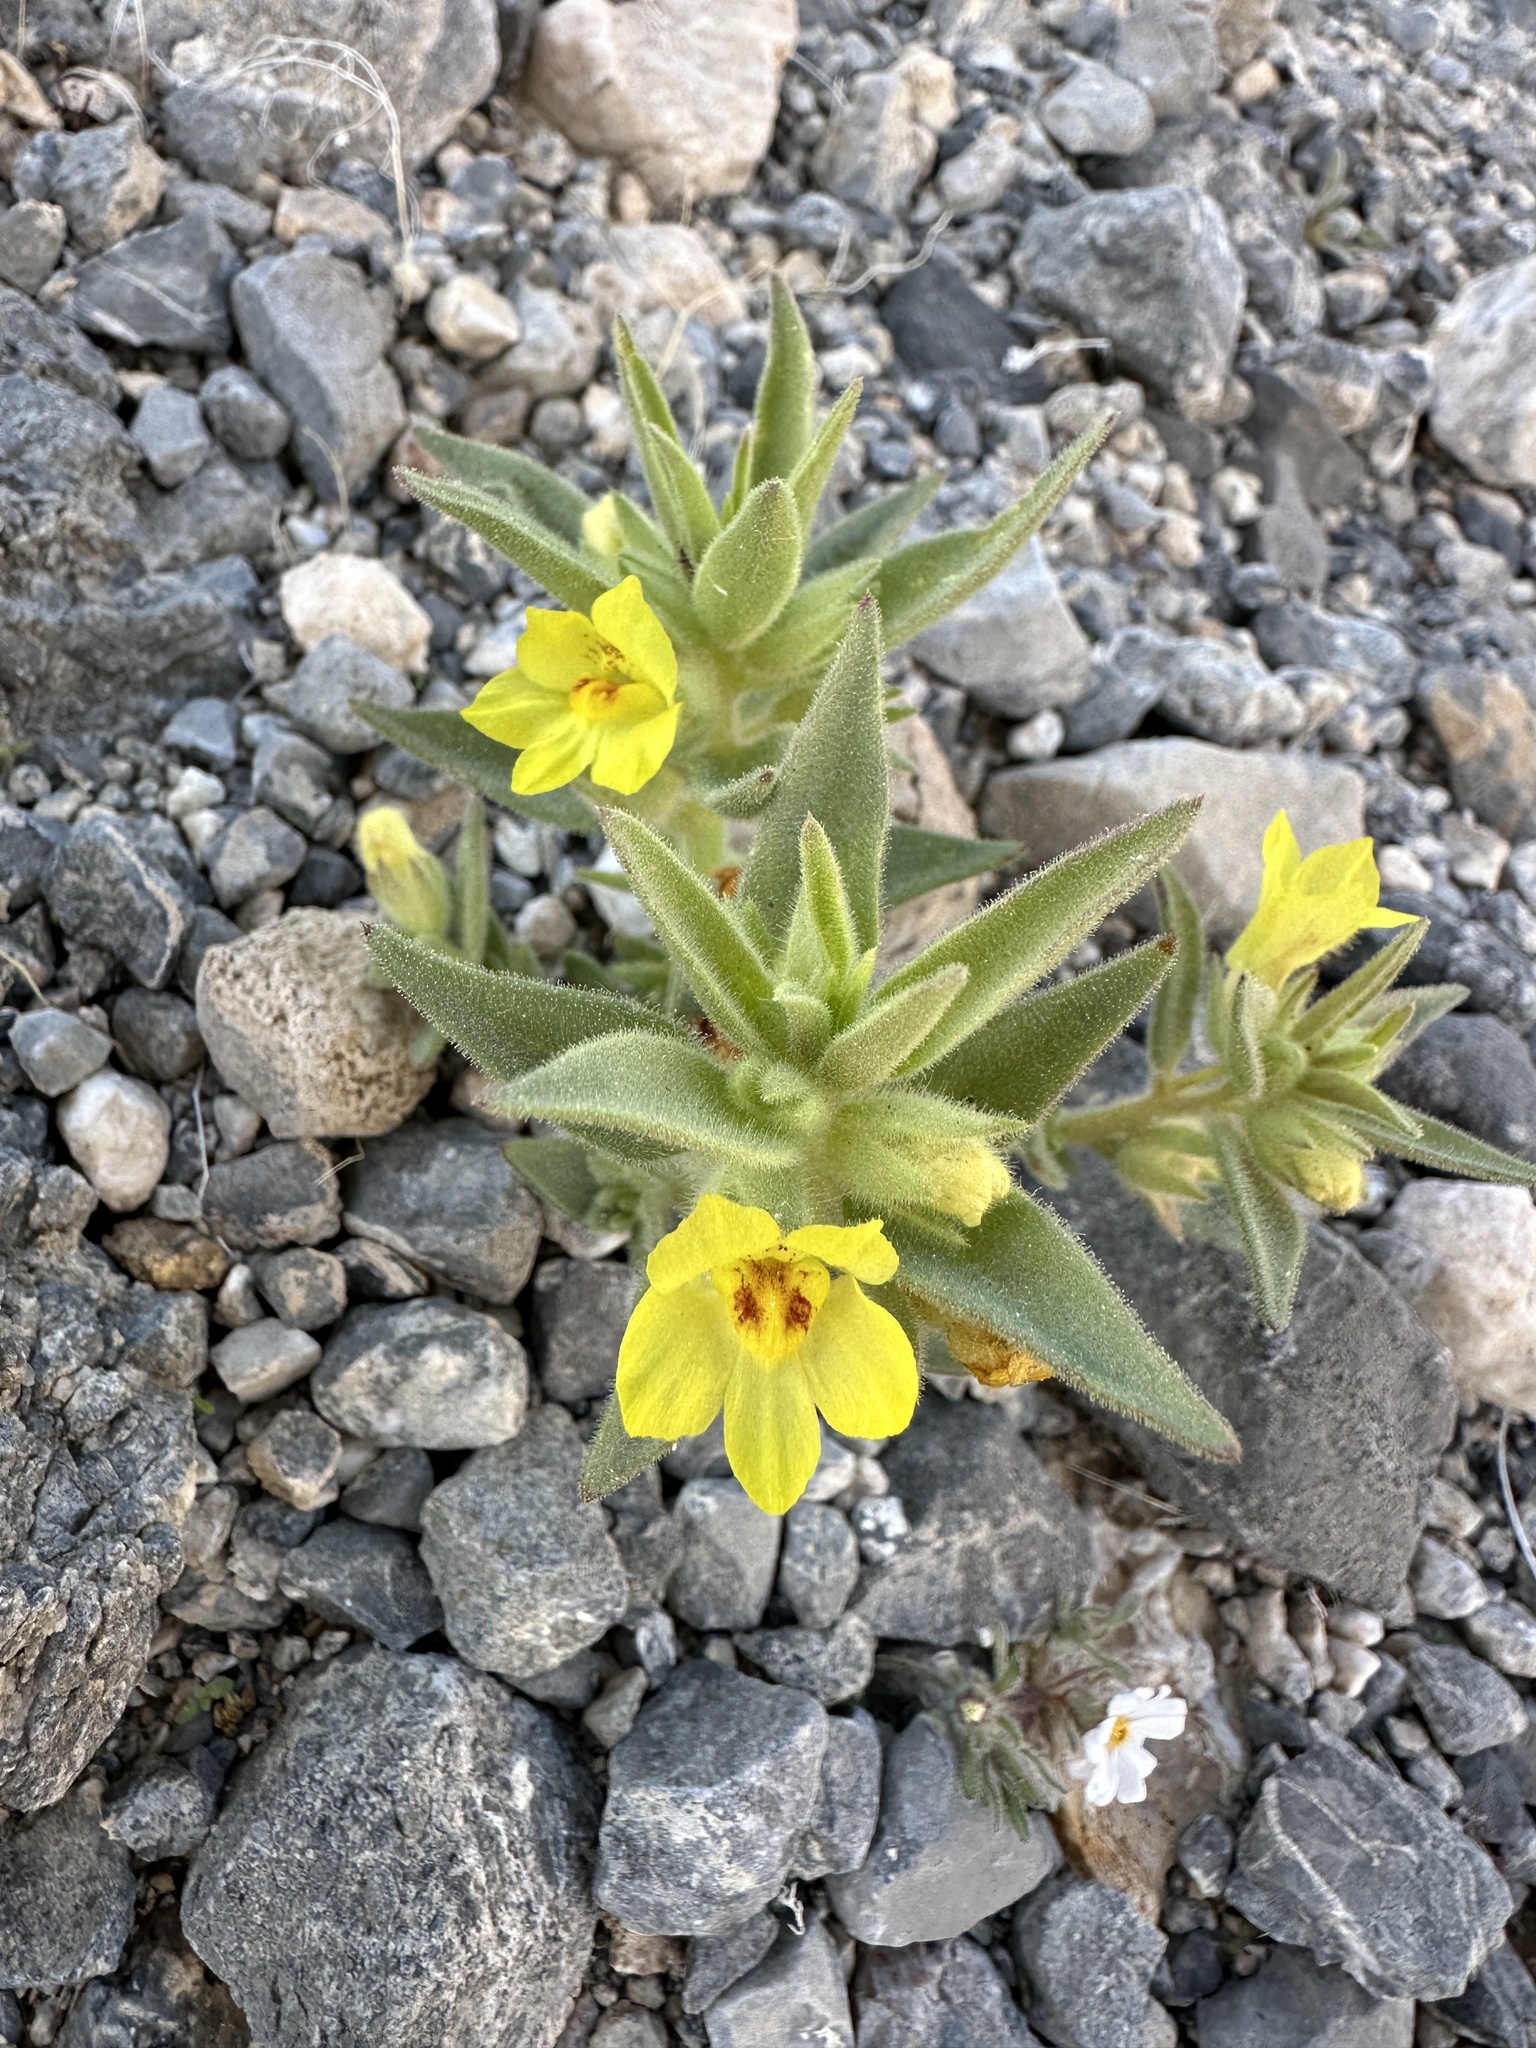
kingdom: Plantae
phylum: Tracheophyta
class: Magnoliopsida
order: Lamiales
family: Plantaginaceae
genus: Mohavea
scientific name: Mohavea breviflora
